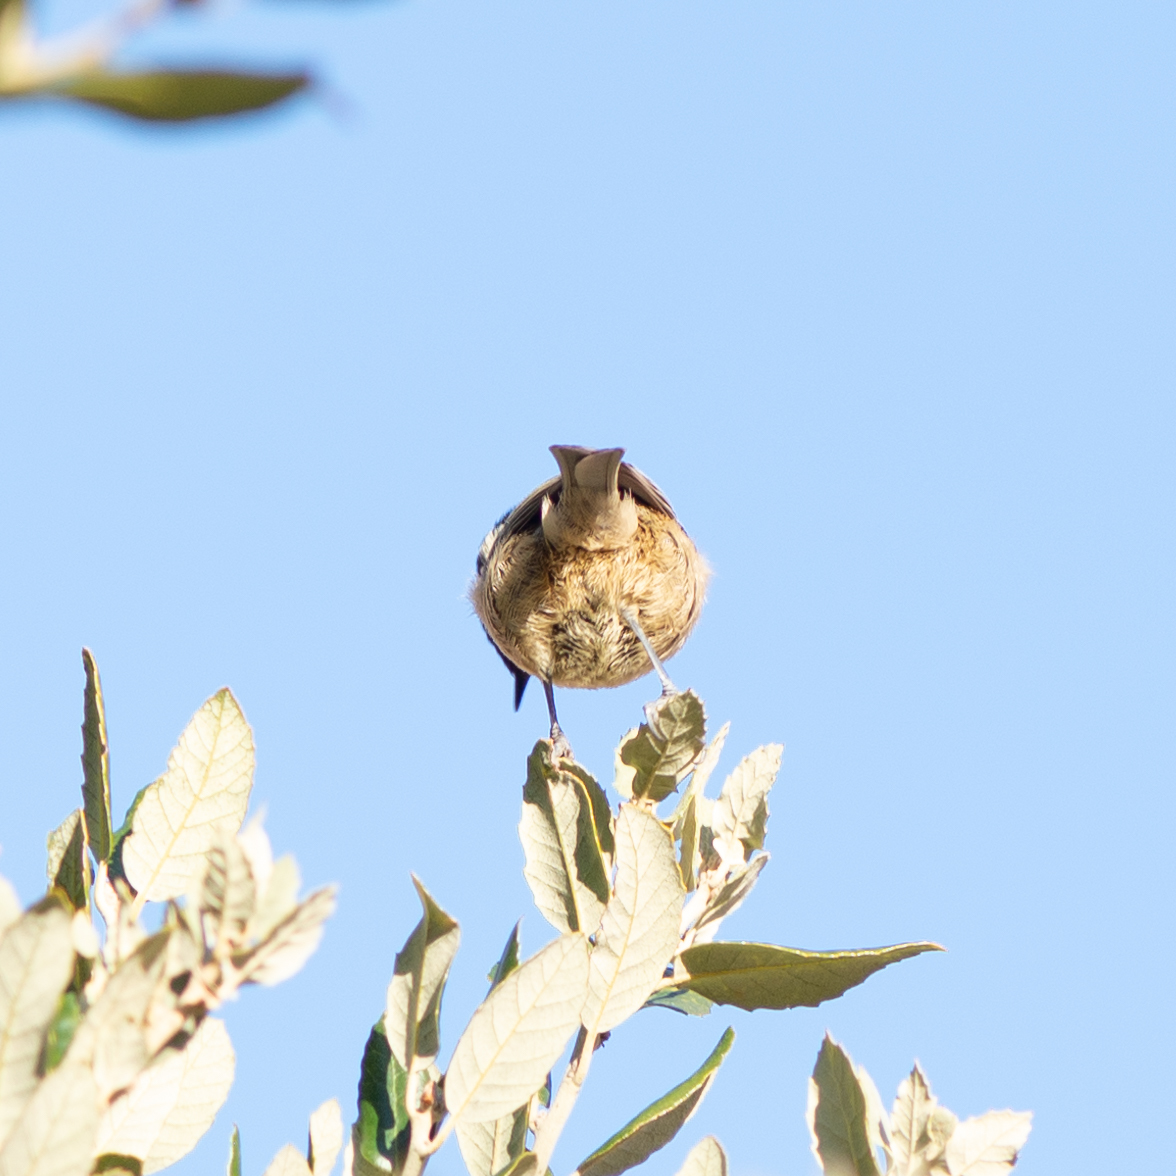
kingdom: Animalia
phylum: Chordata
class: Aves
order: Passeriformes
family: Paridae
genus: Periparus
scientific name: Periparus ater
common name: Coal tit
